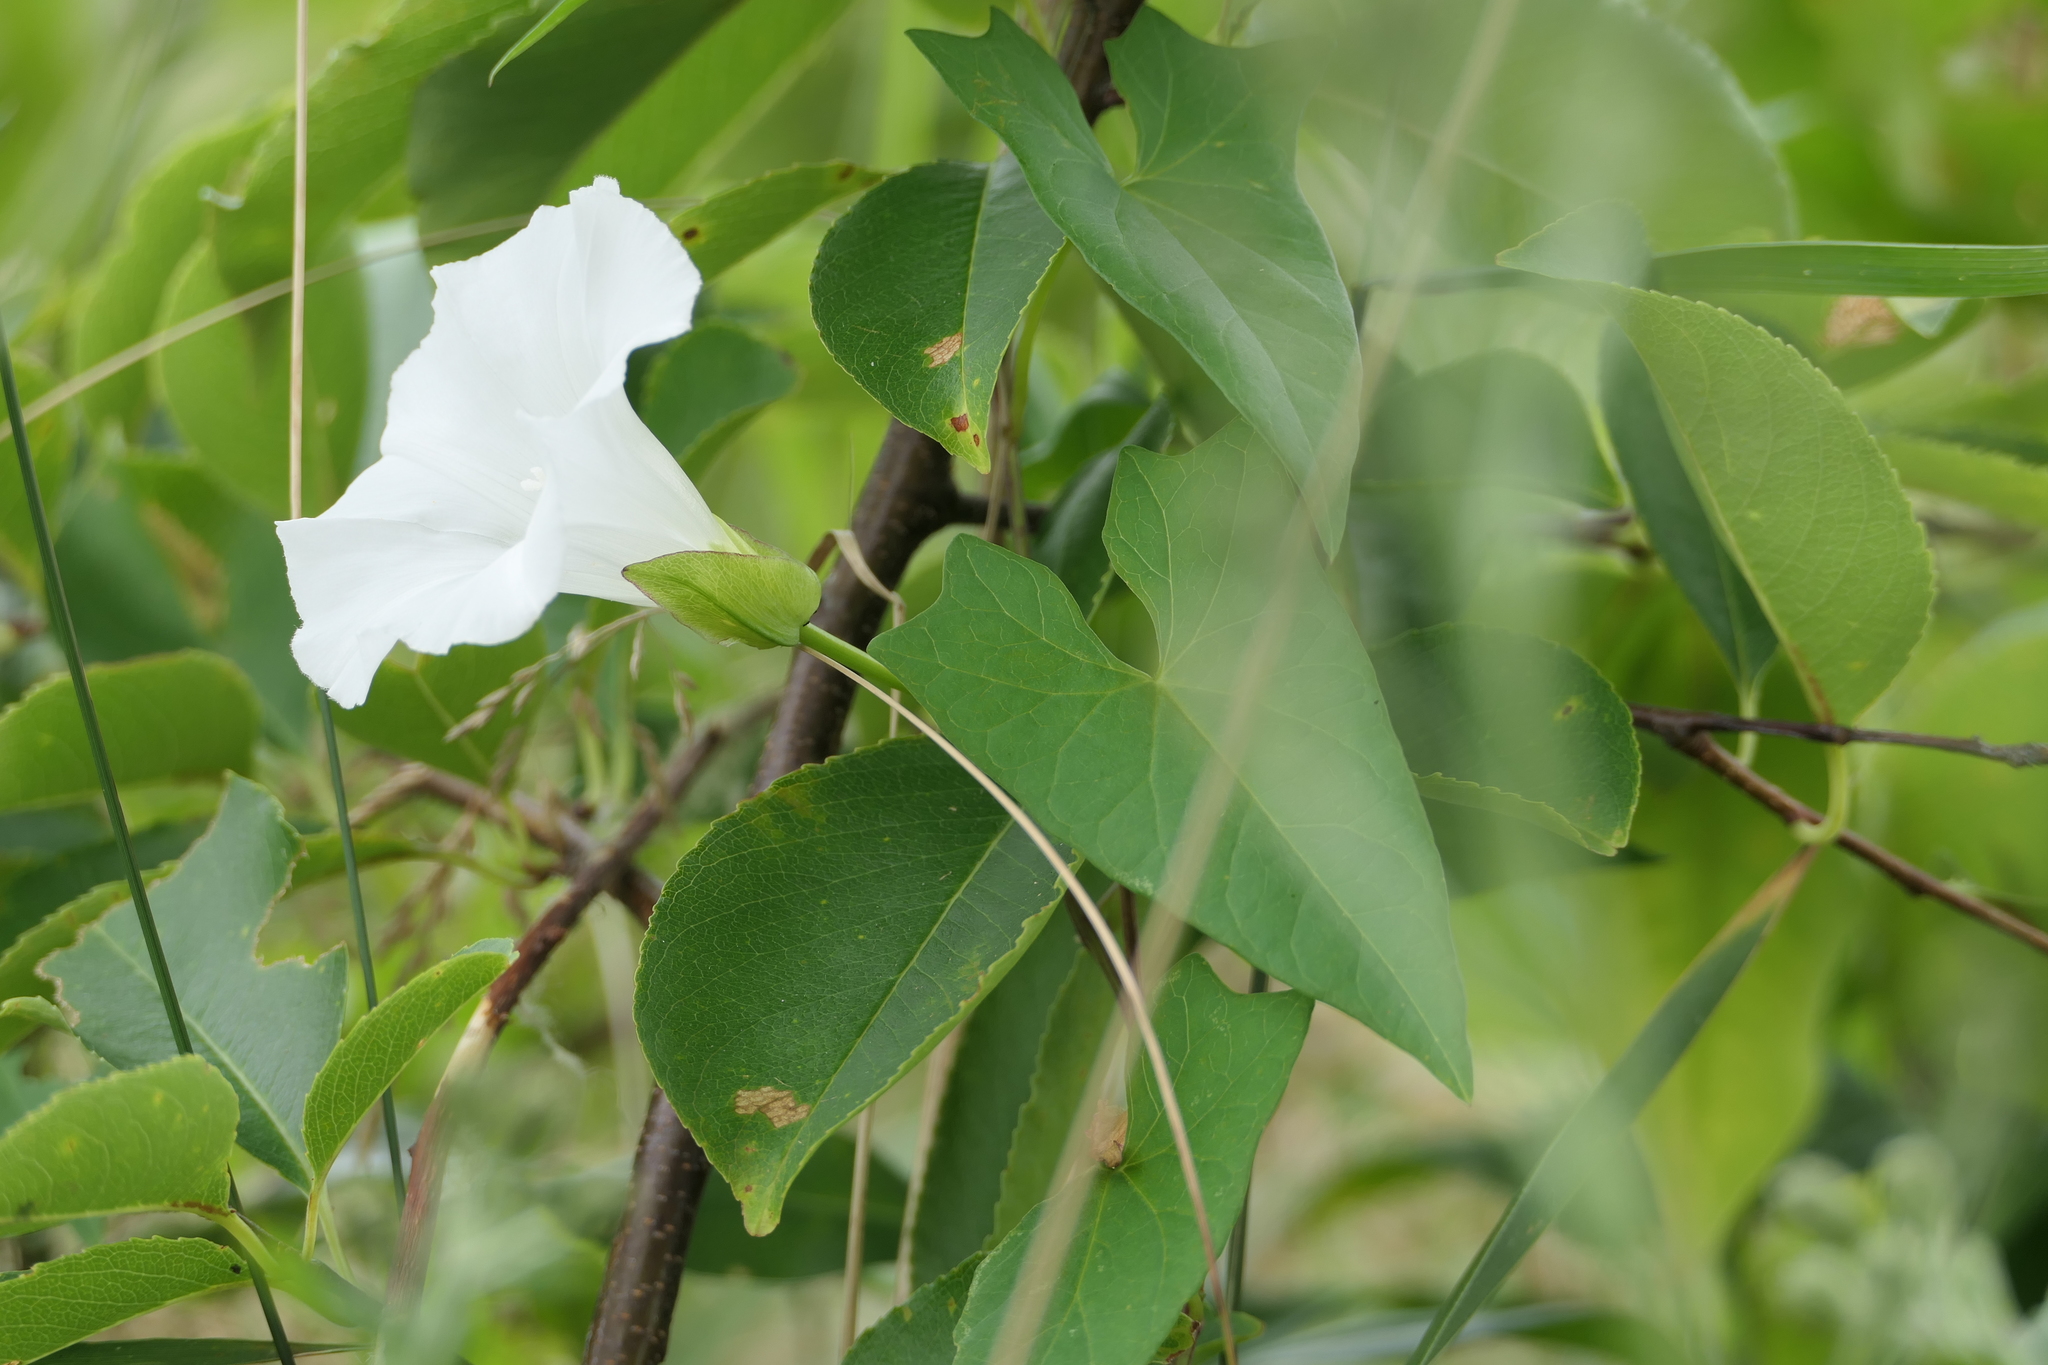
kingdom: Plantae
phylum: Tracheophyta
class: Magnoliopsida
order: Solanales
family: Convolvulaceae
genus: Calystegia
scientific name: Calystegia sepium
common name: Hedge bindweed
